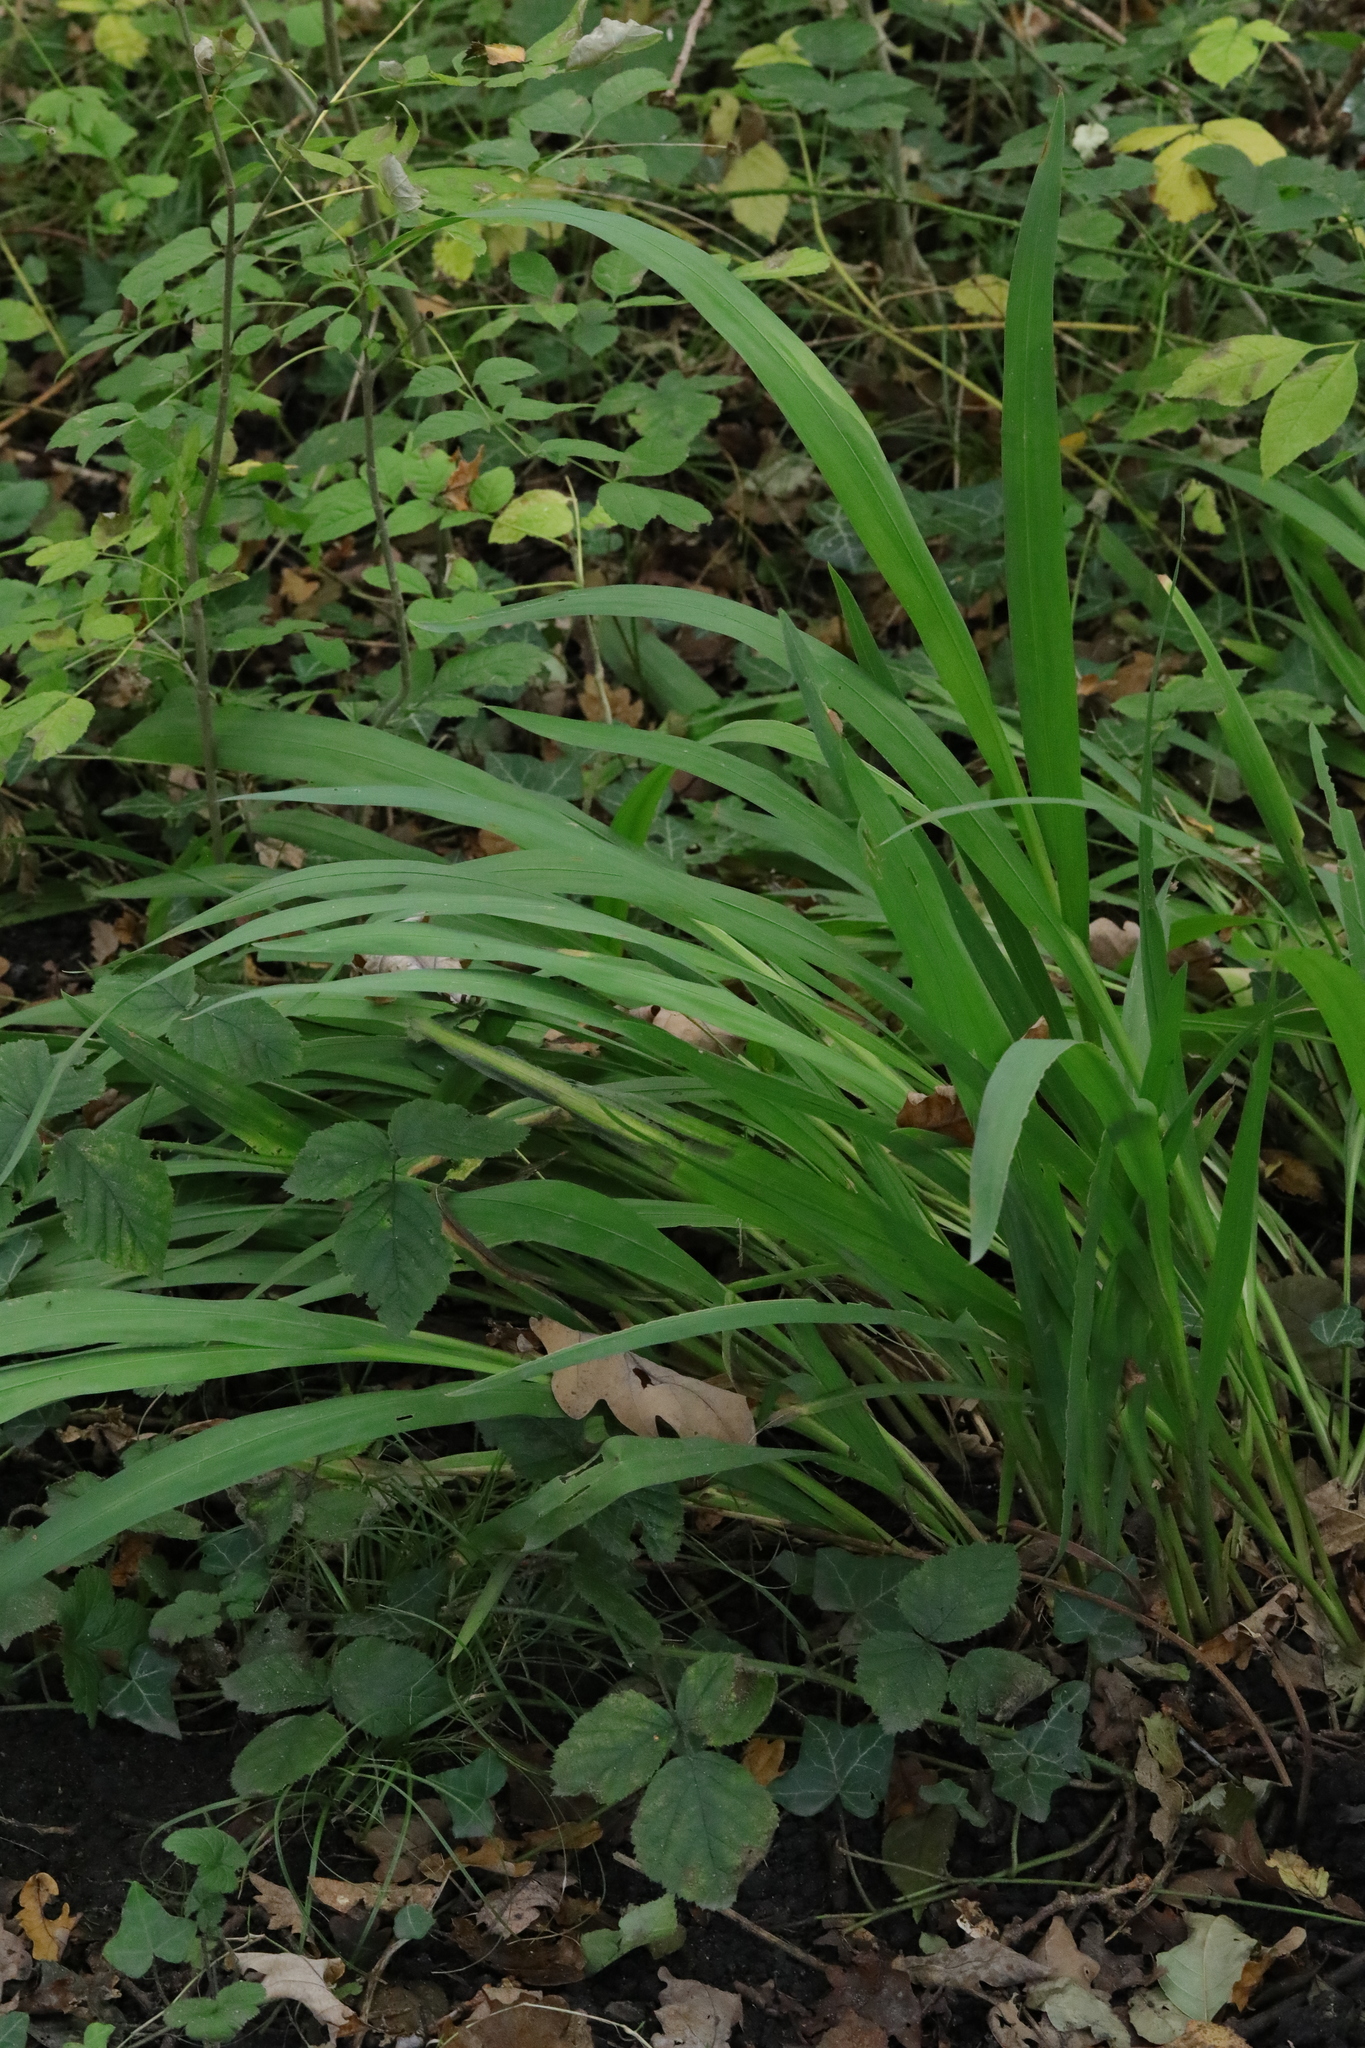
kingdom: Plantae
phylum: Tracheophyta
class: Liliopsida
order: Asparagales
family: Iridaceae
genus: Crocosmia
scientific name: Crocosmia crocosmiiflora
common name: Montbretia
